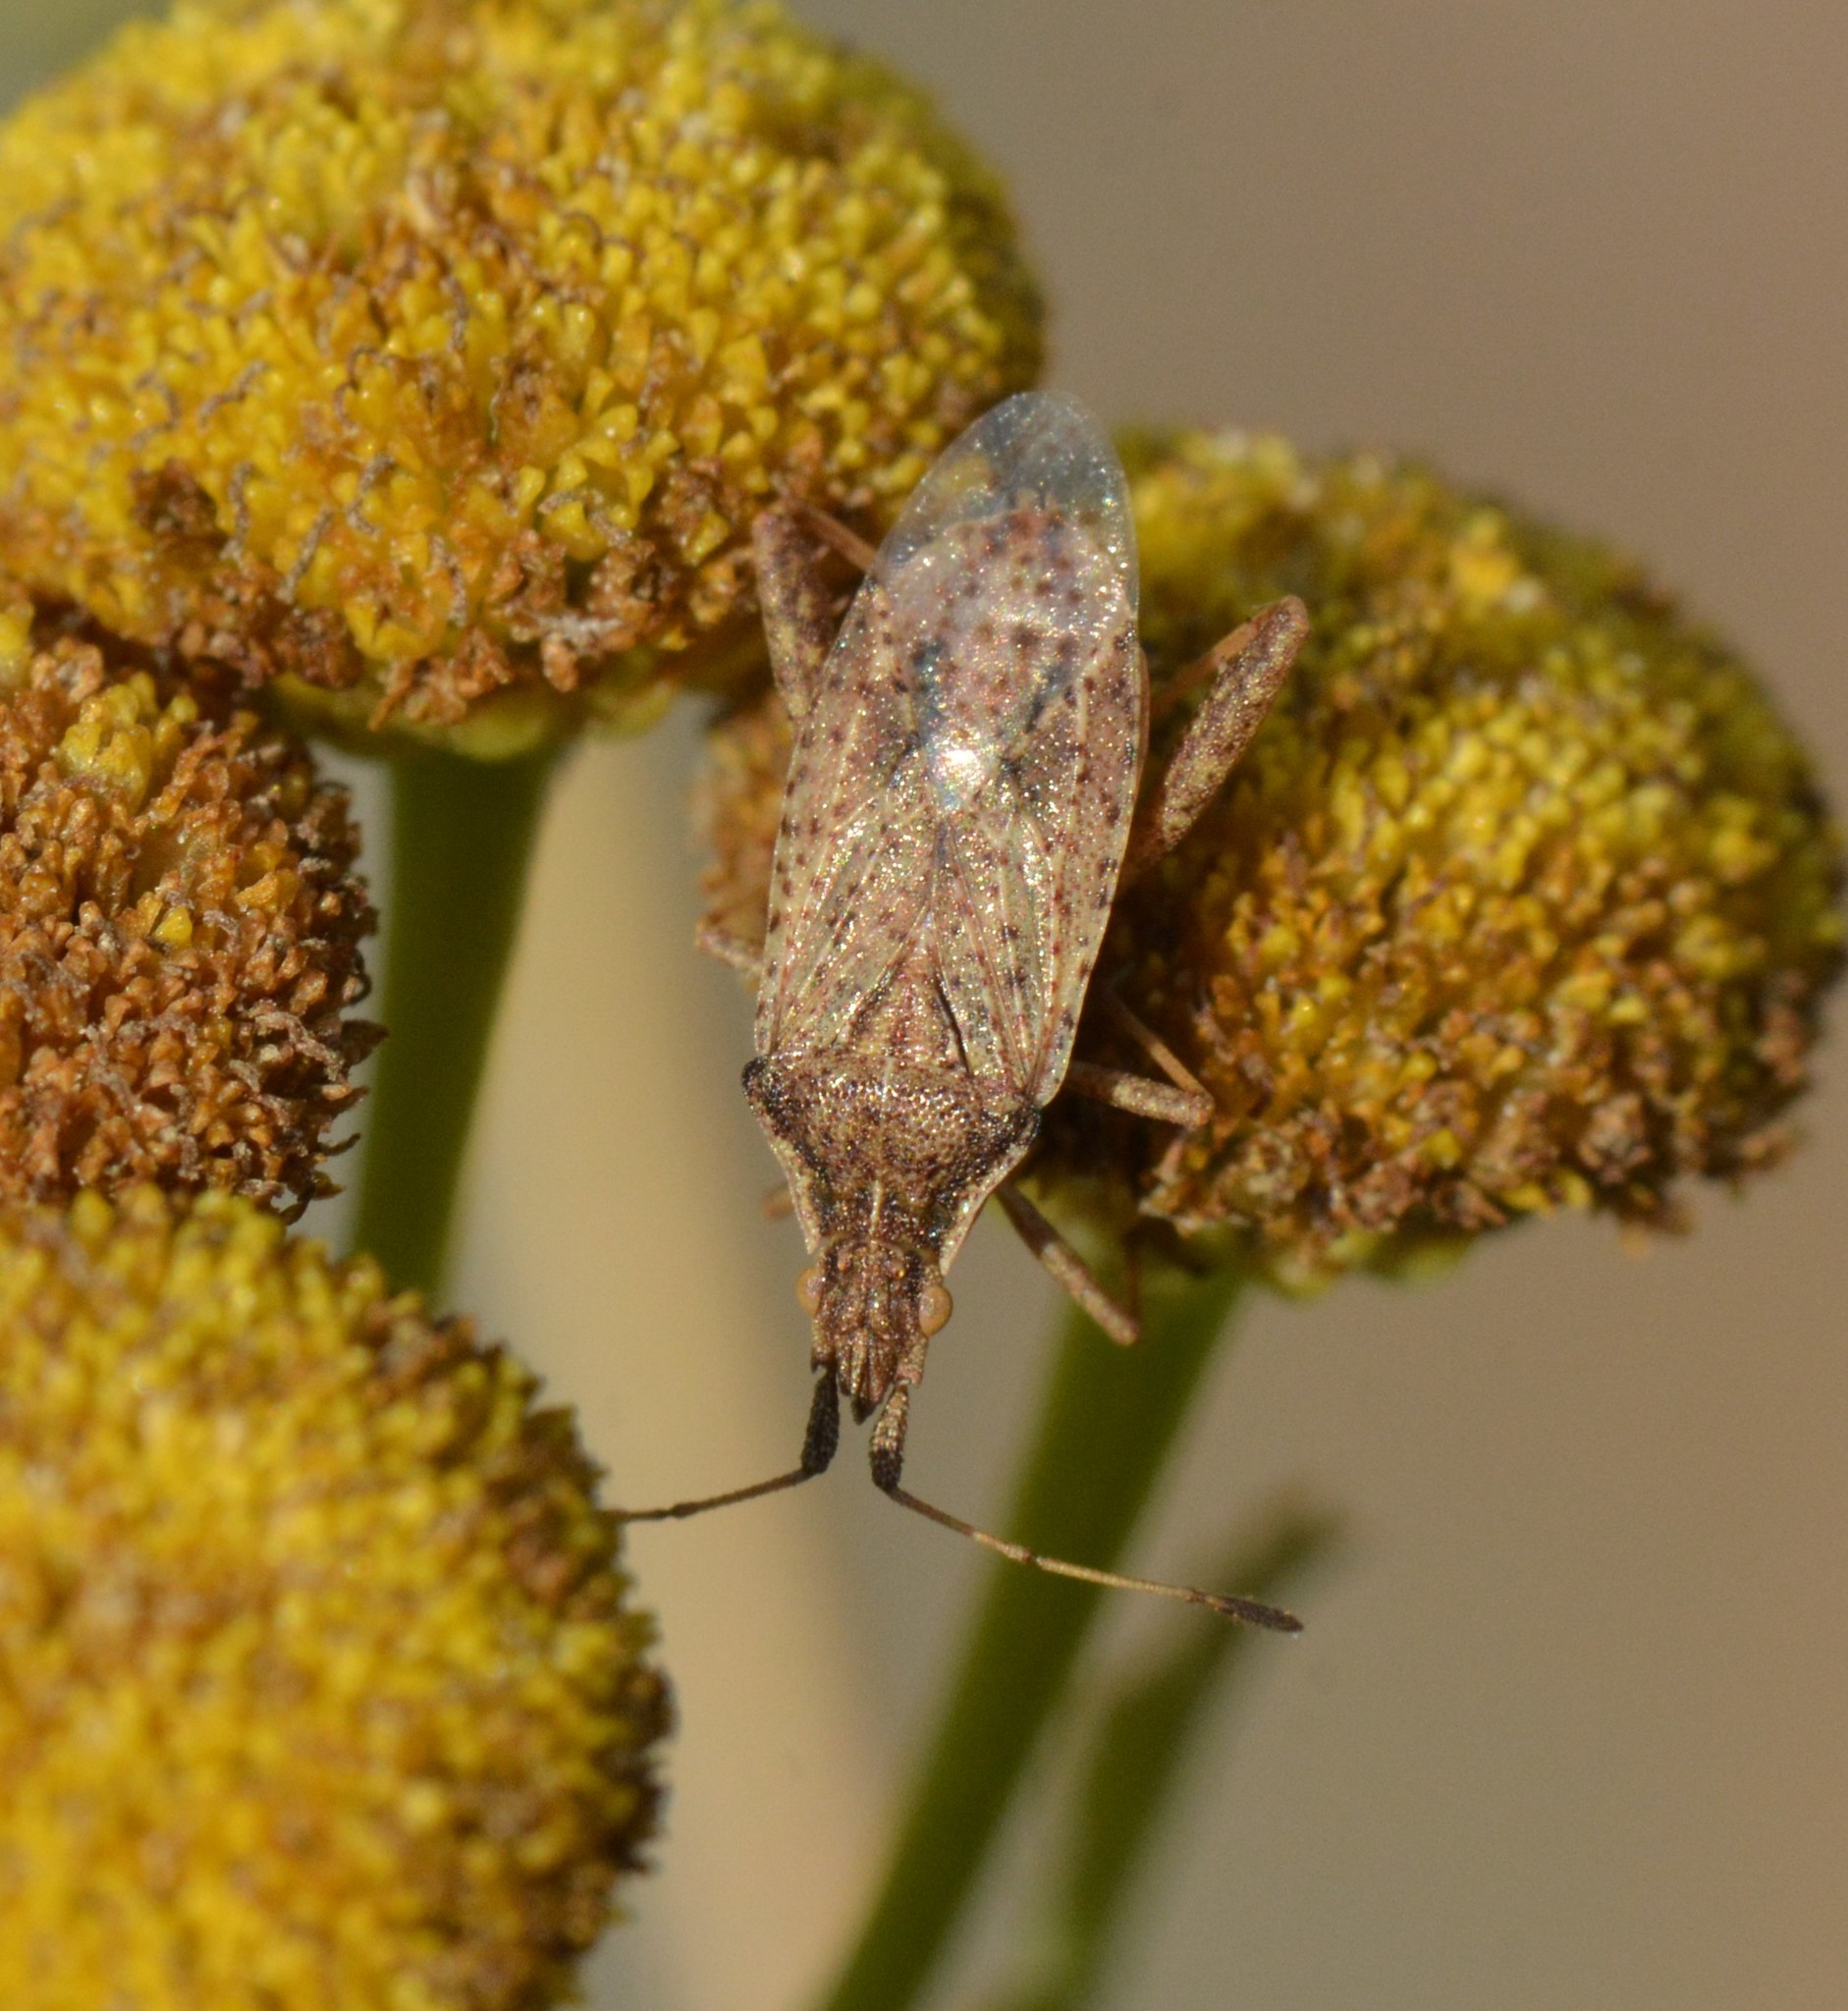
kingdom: Animalia
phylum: Arthropoda
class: Insecta
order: Hemiptera
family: Rhopalidae
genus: Harmostes
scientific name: Harmostes reflexulus
